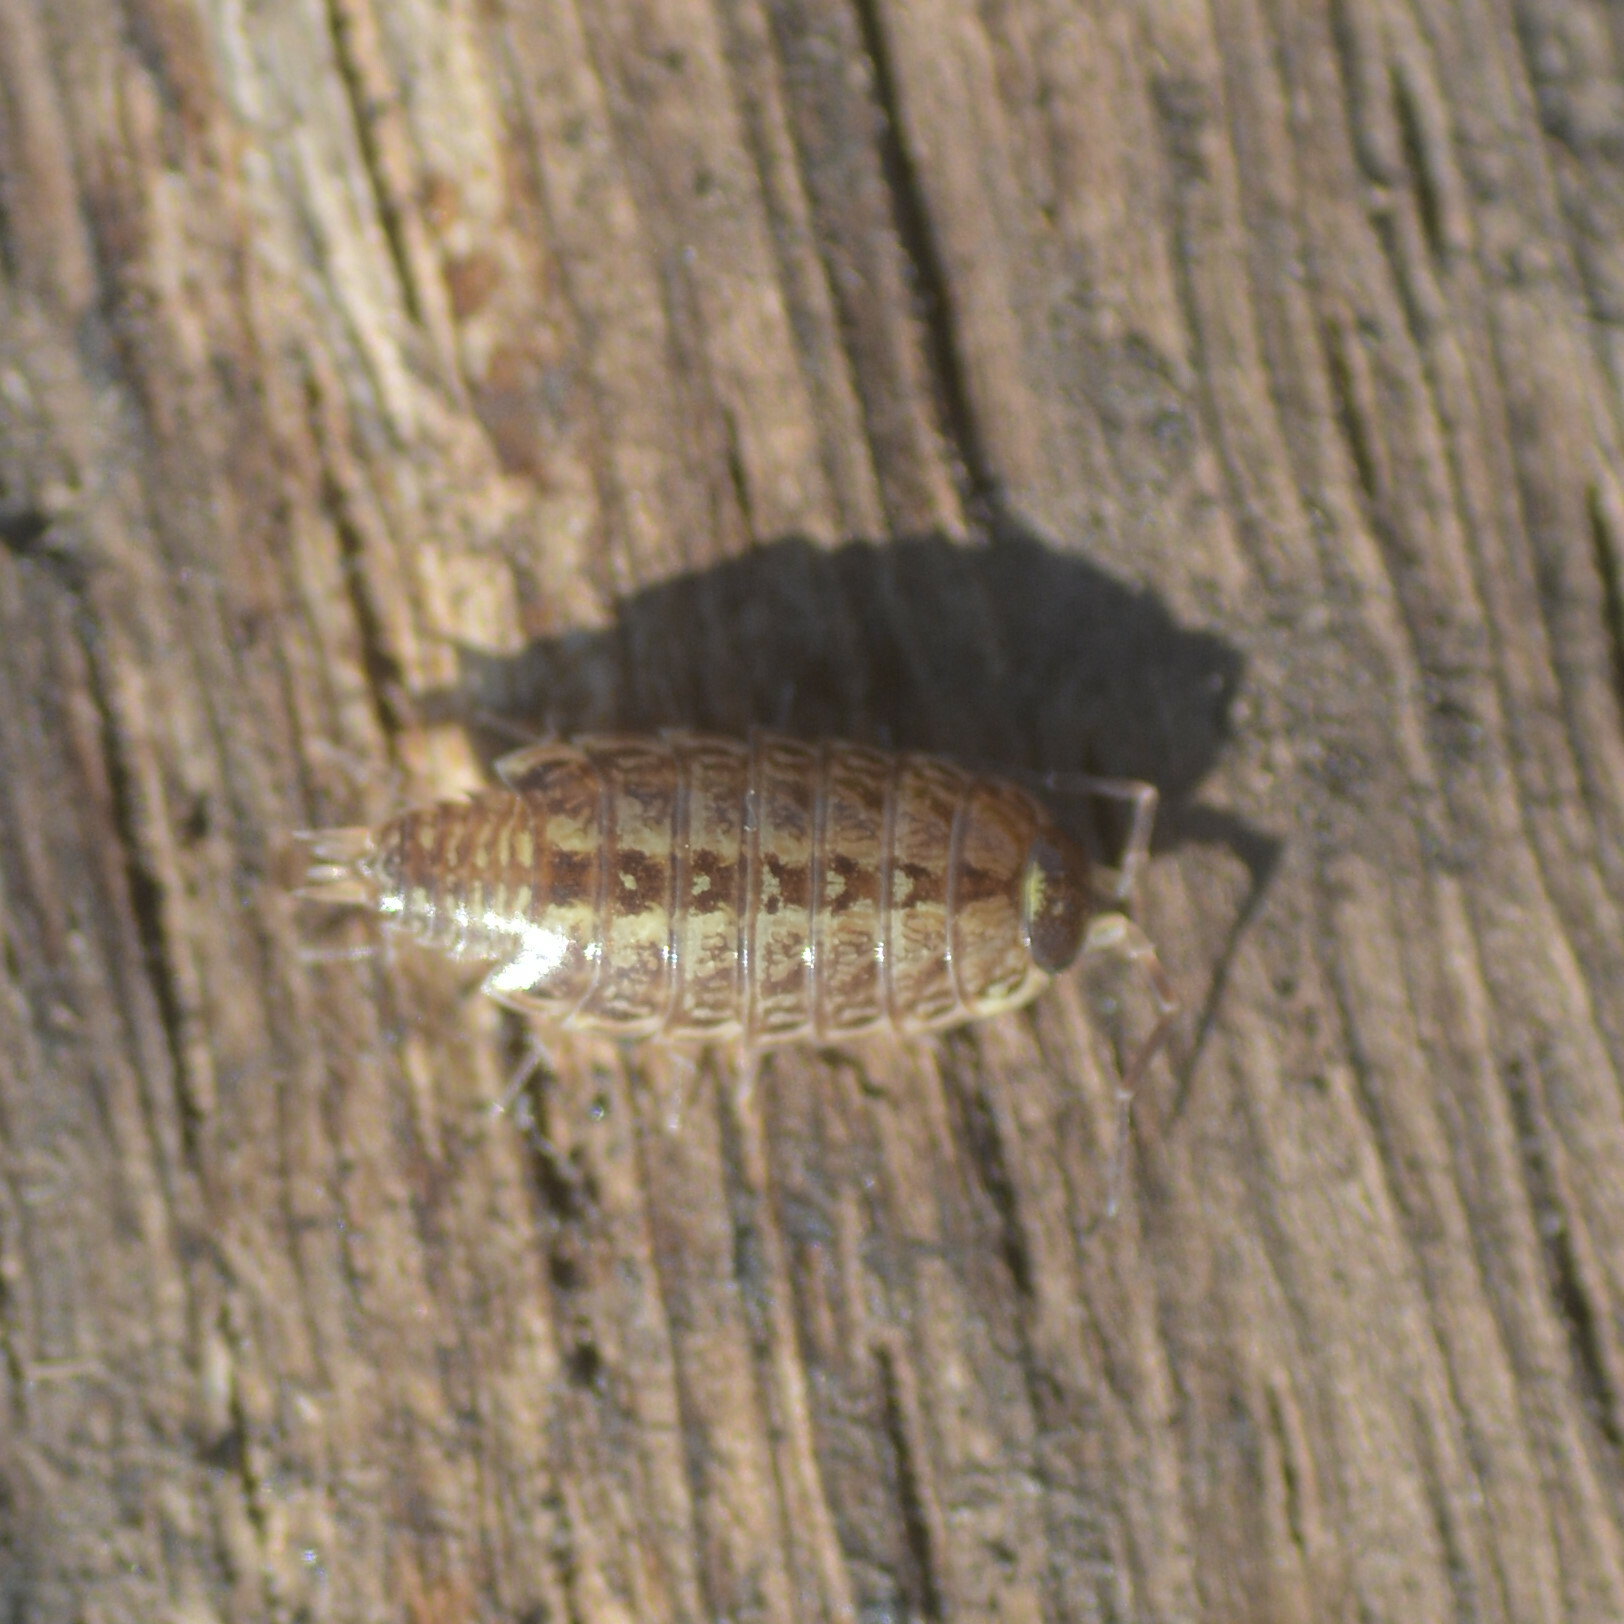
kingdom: Animalia
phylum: Arthropoda
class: Malacostraca
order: Isopoda
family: Philosciidae
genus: Philoscia
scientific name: Philoscia muscorum
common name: Common striped woodlouse
